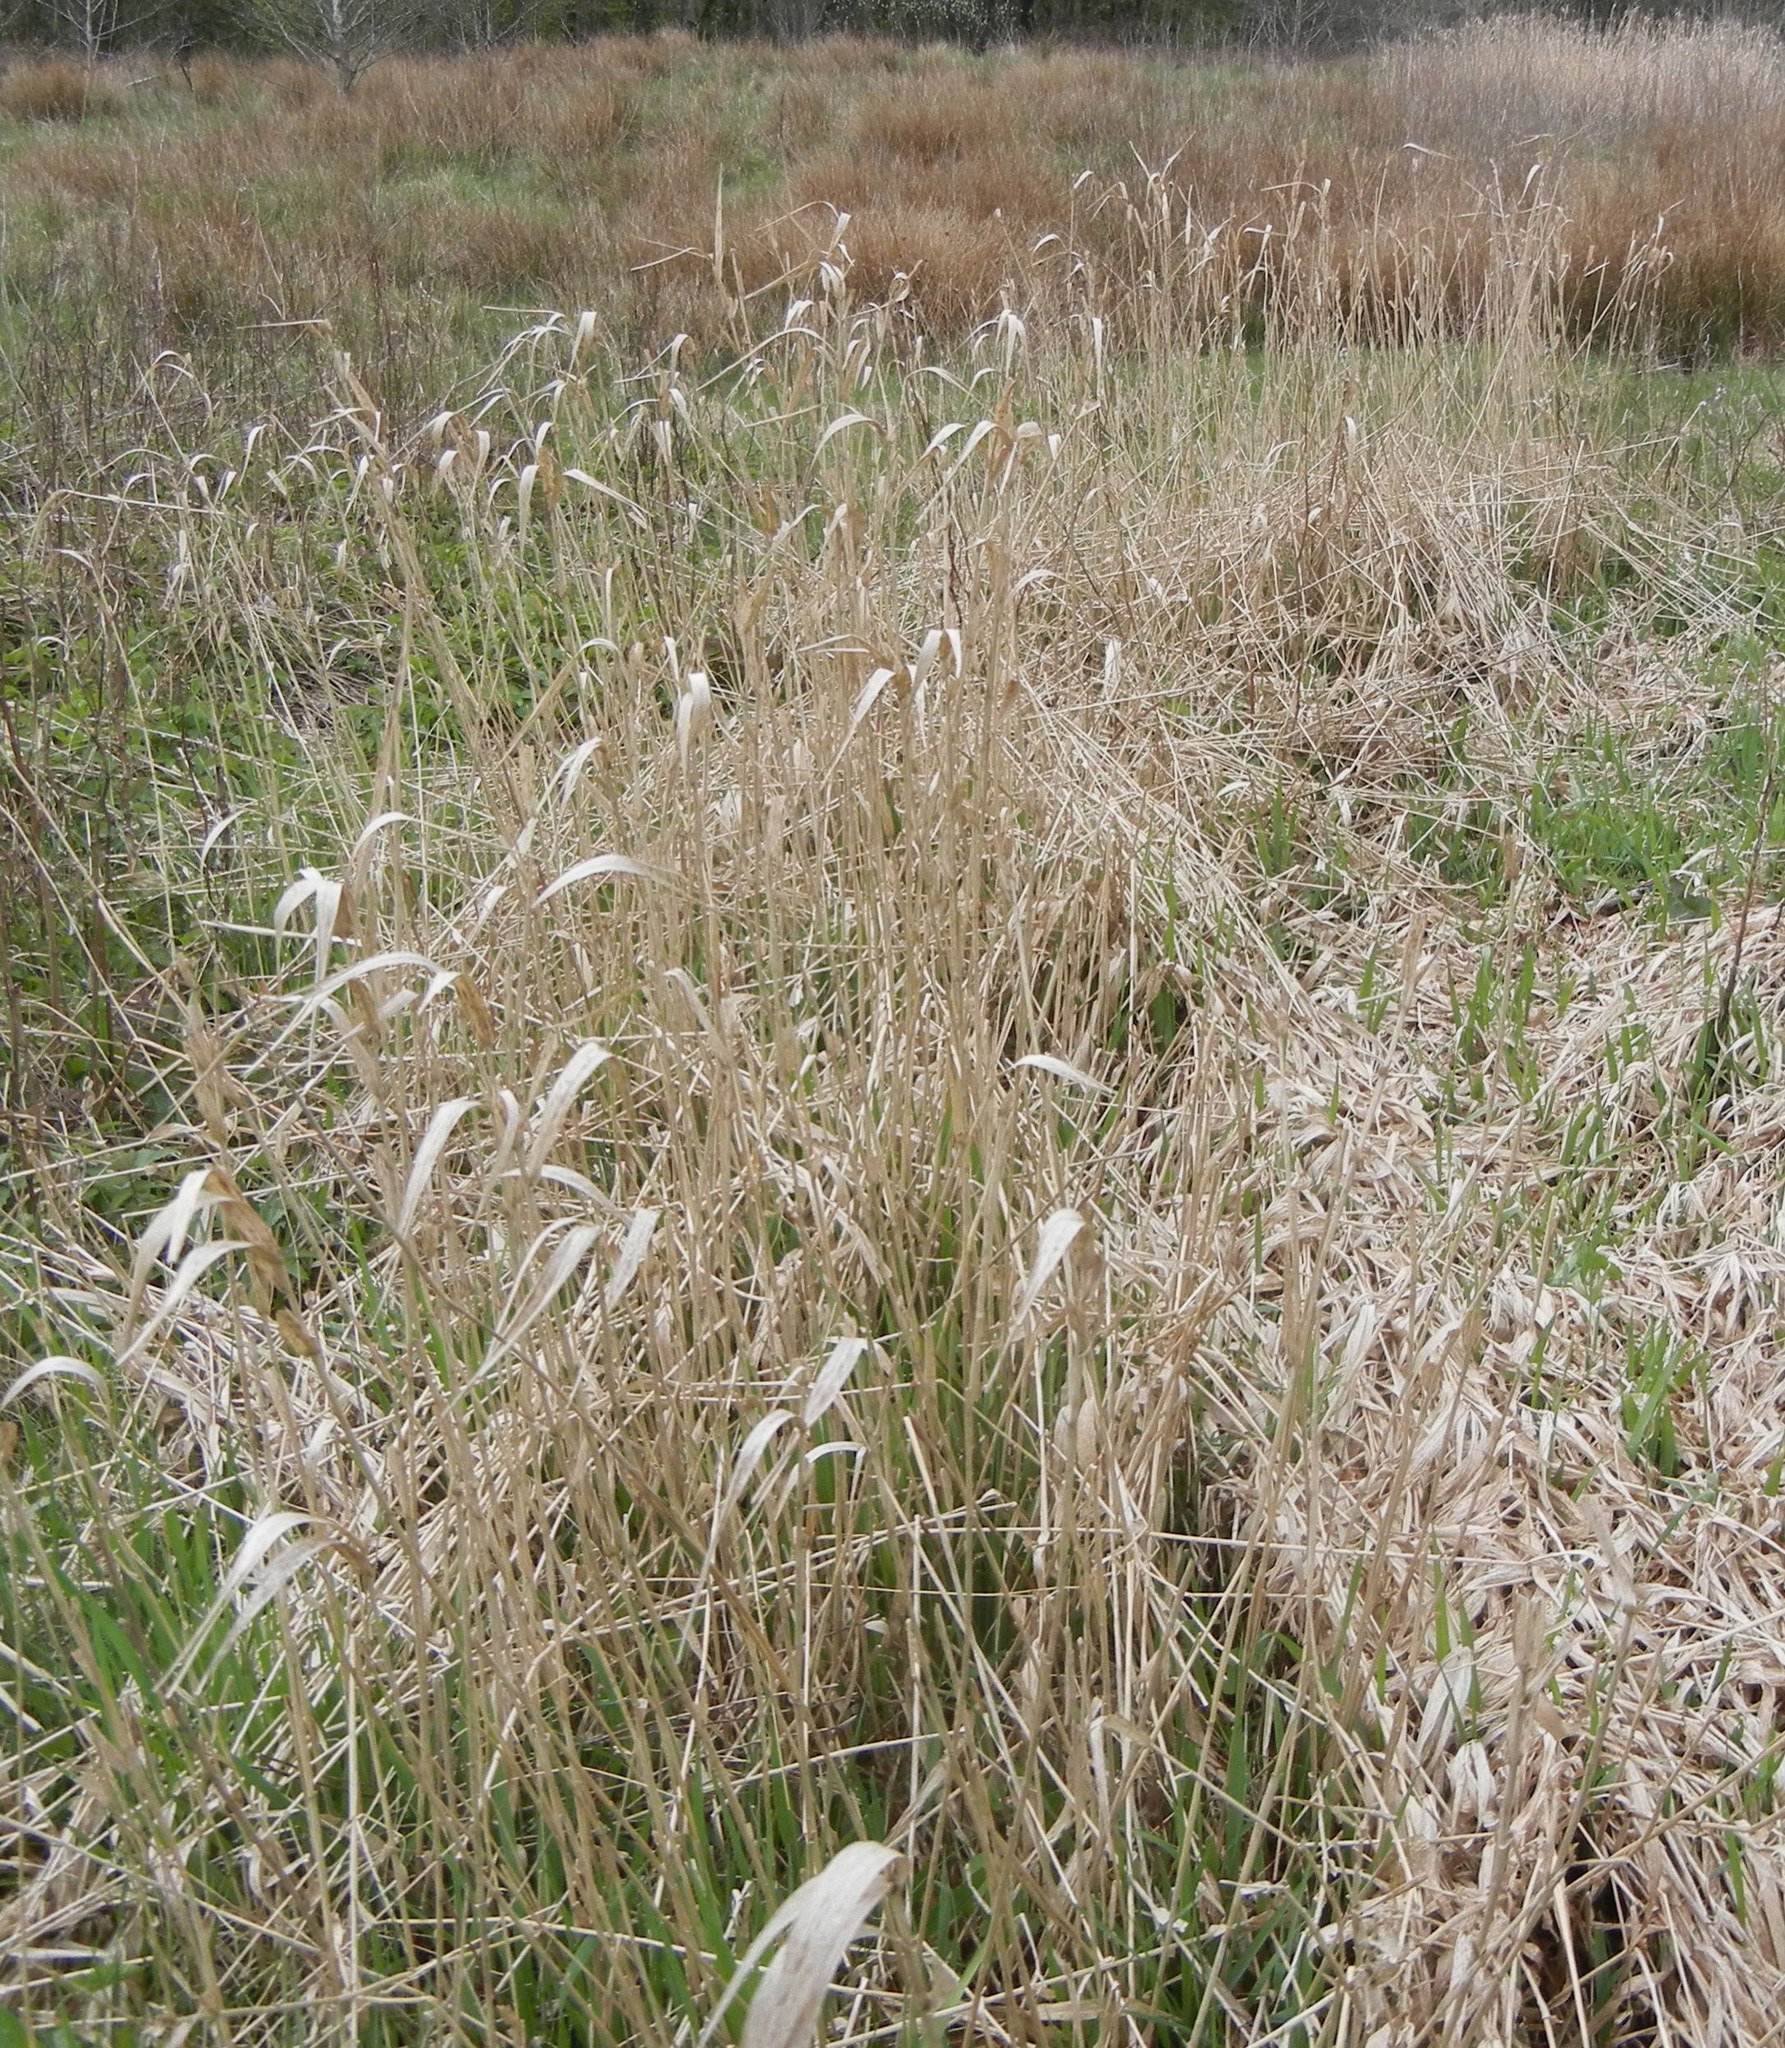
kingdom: Plantae
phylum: Tracheophyta
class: Liliopsida
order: Poales
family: Poaceae
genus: Phalaris
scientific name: Phalaris arundinacea
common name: Reed canary-grass
